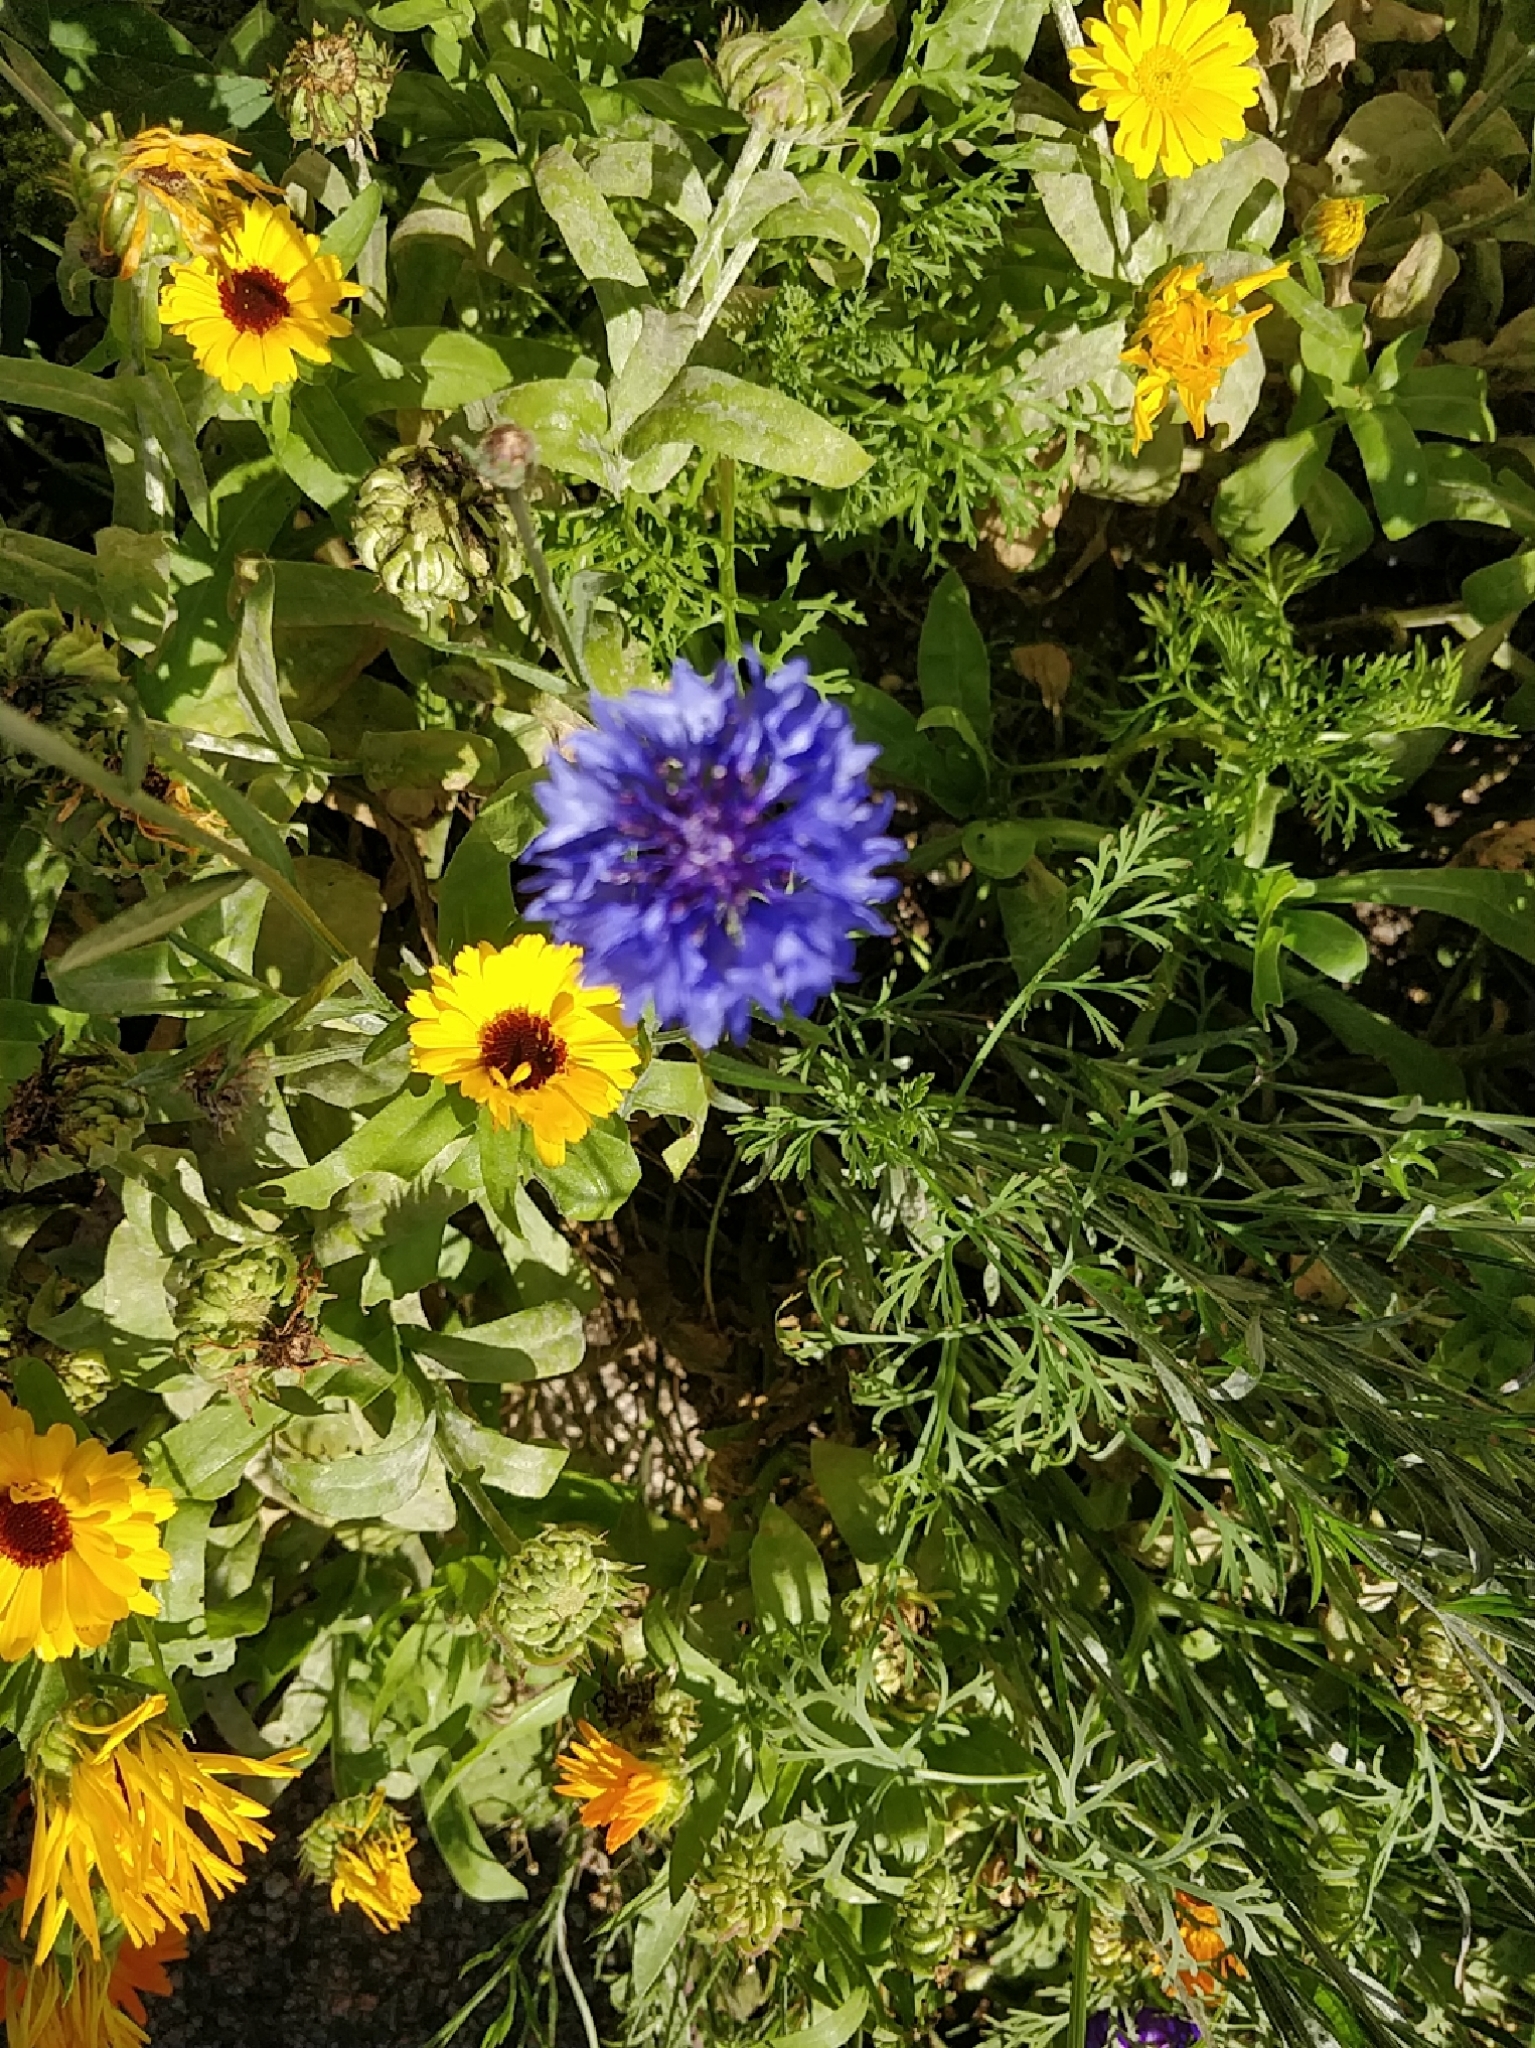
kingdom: Plantae
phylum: Tracheophyta
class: Magnoliopsida
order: Asterales
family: Asteraceae
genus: Centaurea
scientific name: Centaurea cyanus
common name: Cornflower
